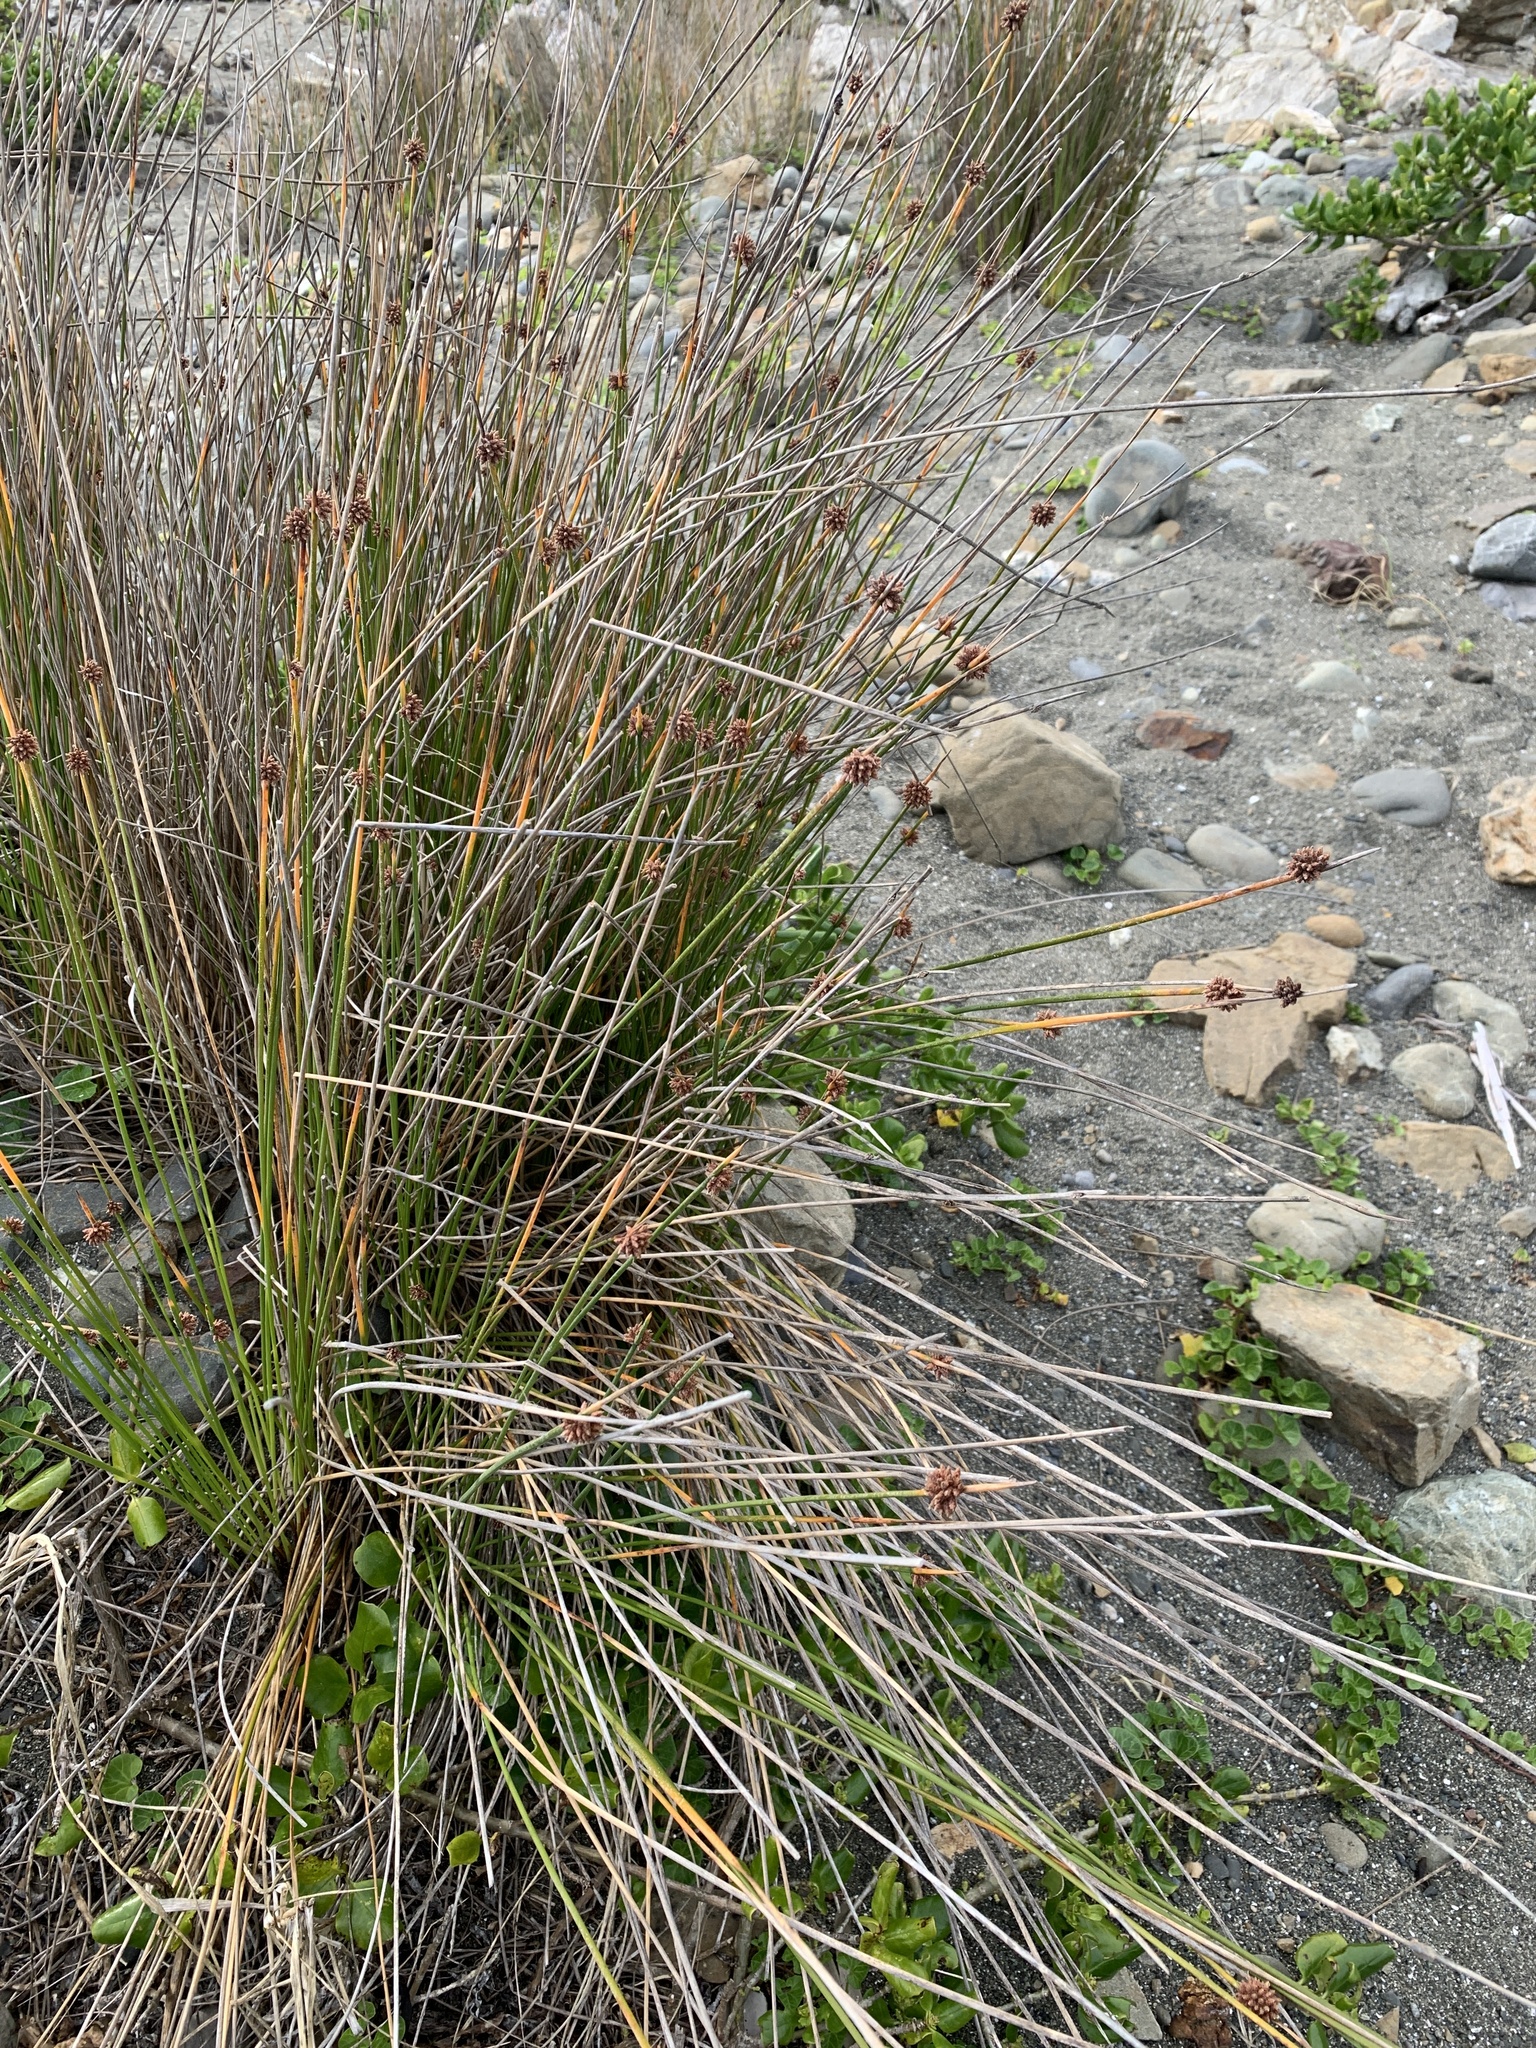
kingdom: Plantae
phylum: Tracheophyta
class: Liliopsida
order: Poales
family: Cyperaceae
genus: Ficinia
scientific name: Ficinia nodosa
